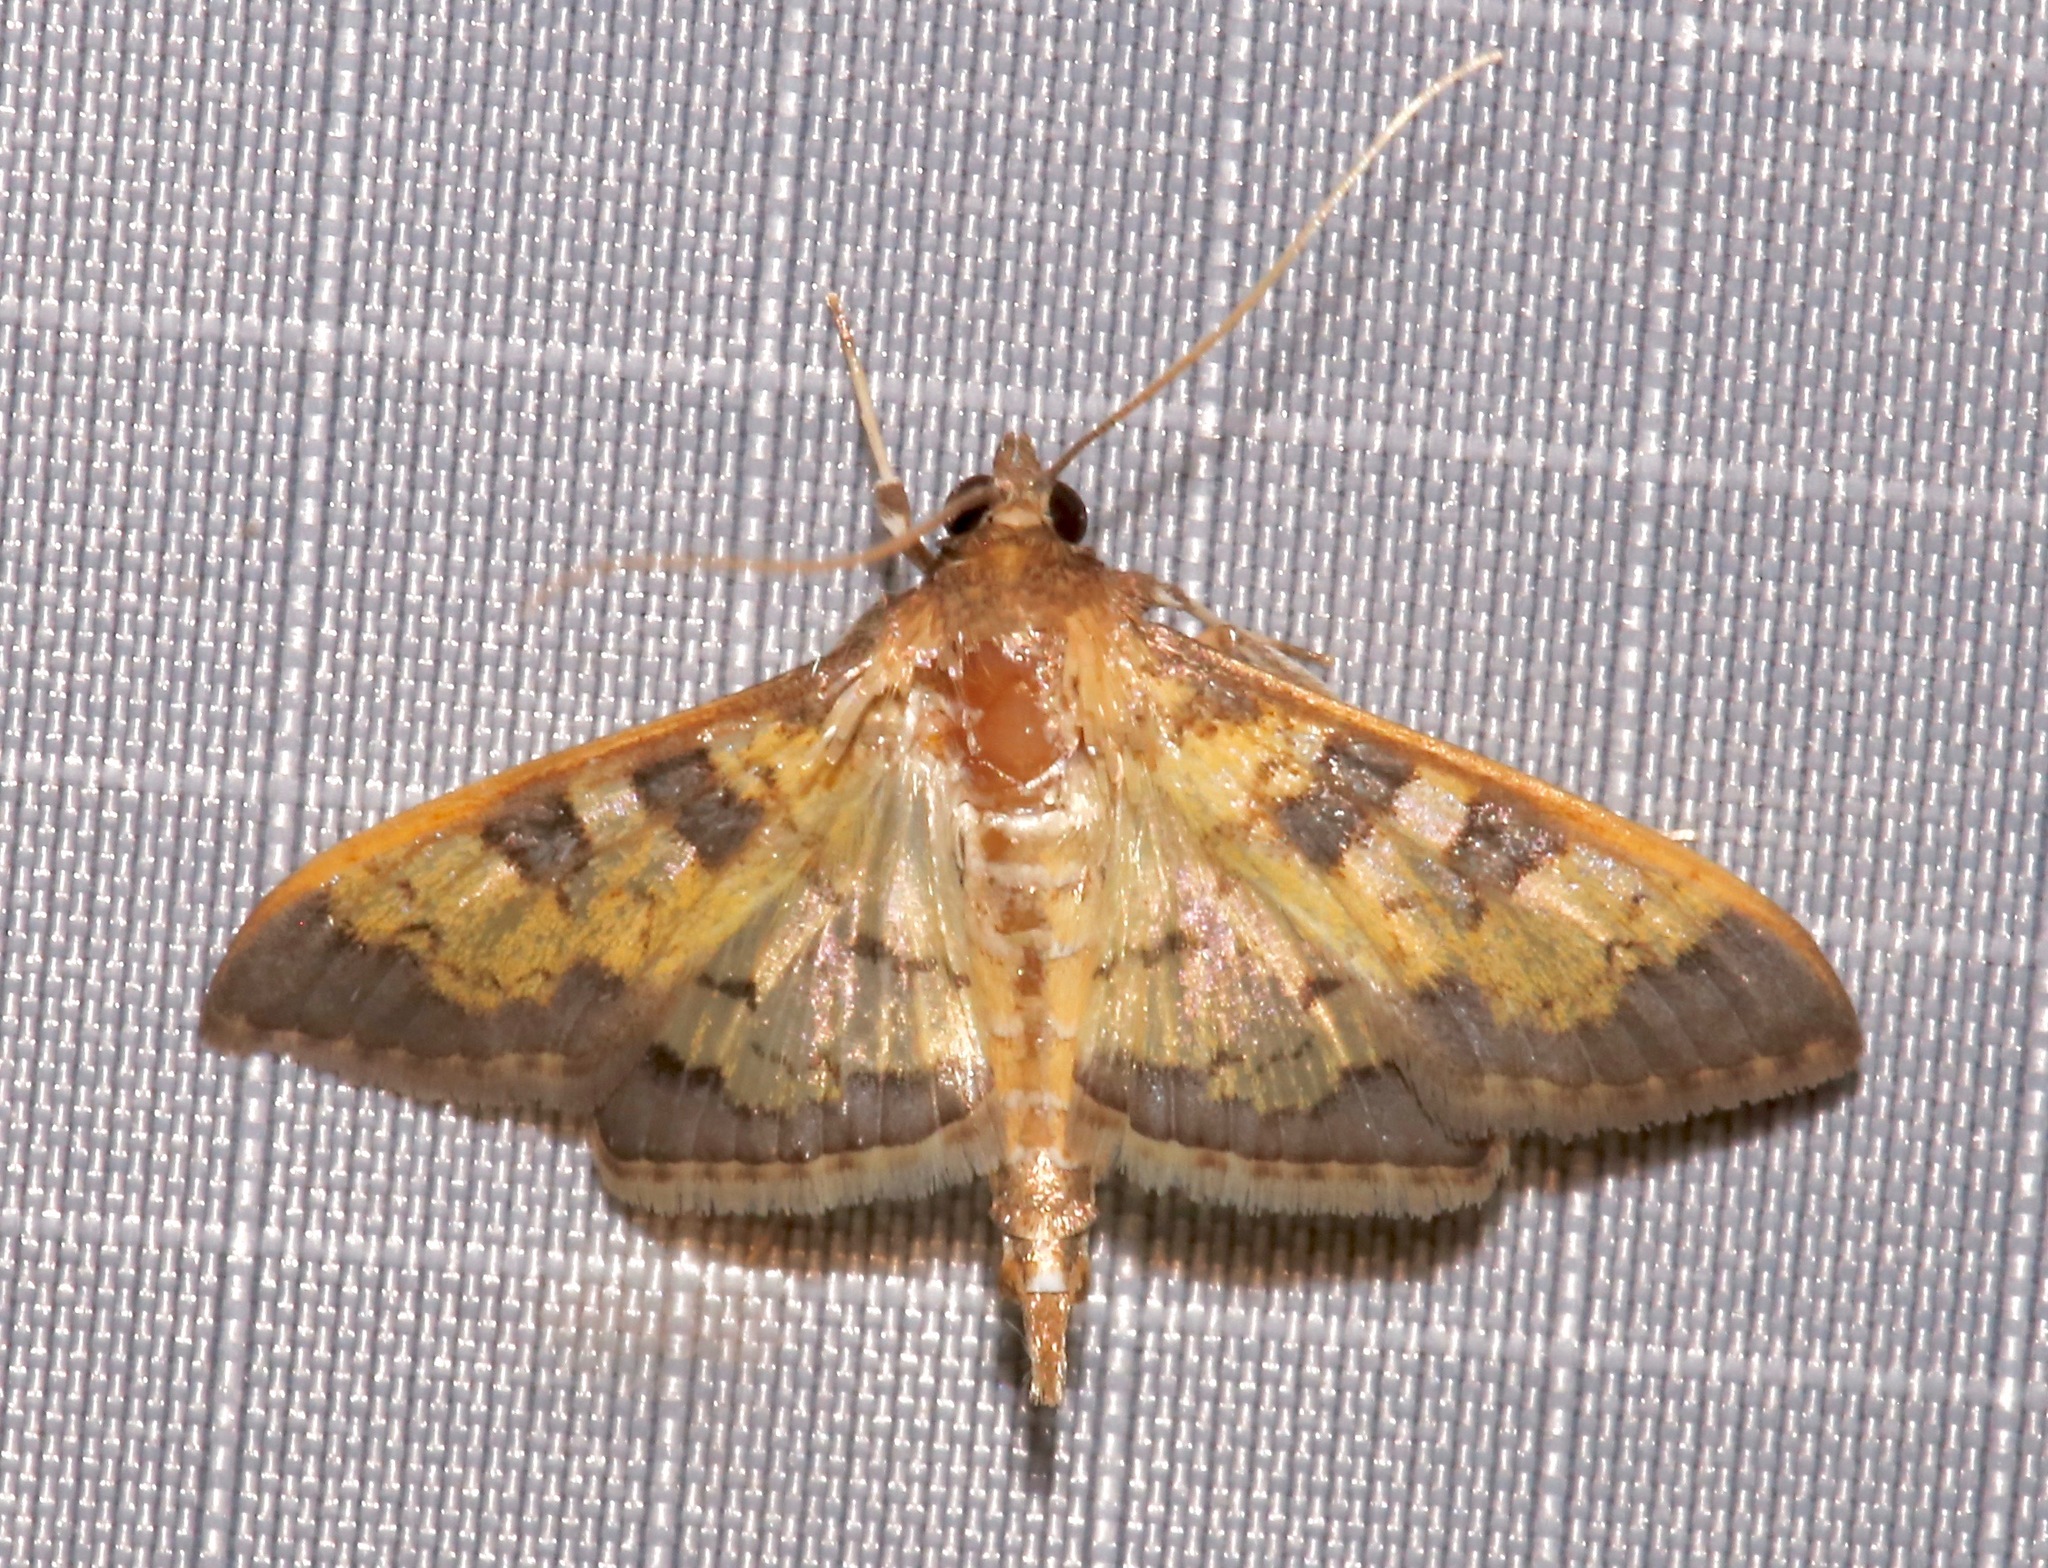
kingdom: Animalia
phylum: Arthropoda
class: Insecta
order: Lepidoptera
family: Crambidae
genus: Cryptographis
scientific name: Cryptographis elealis
